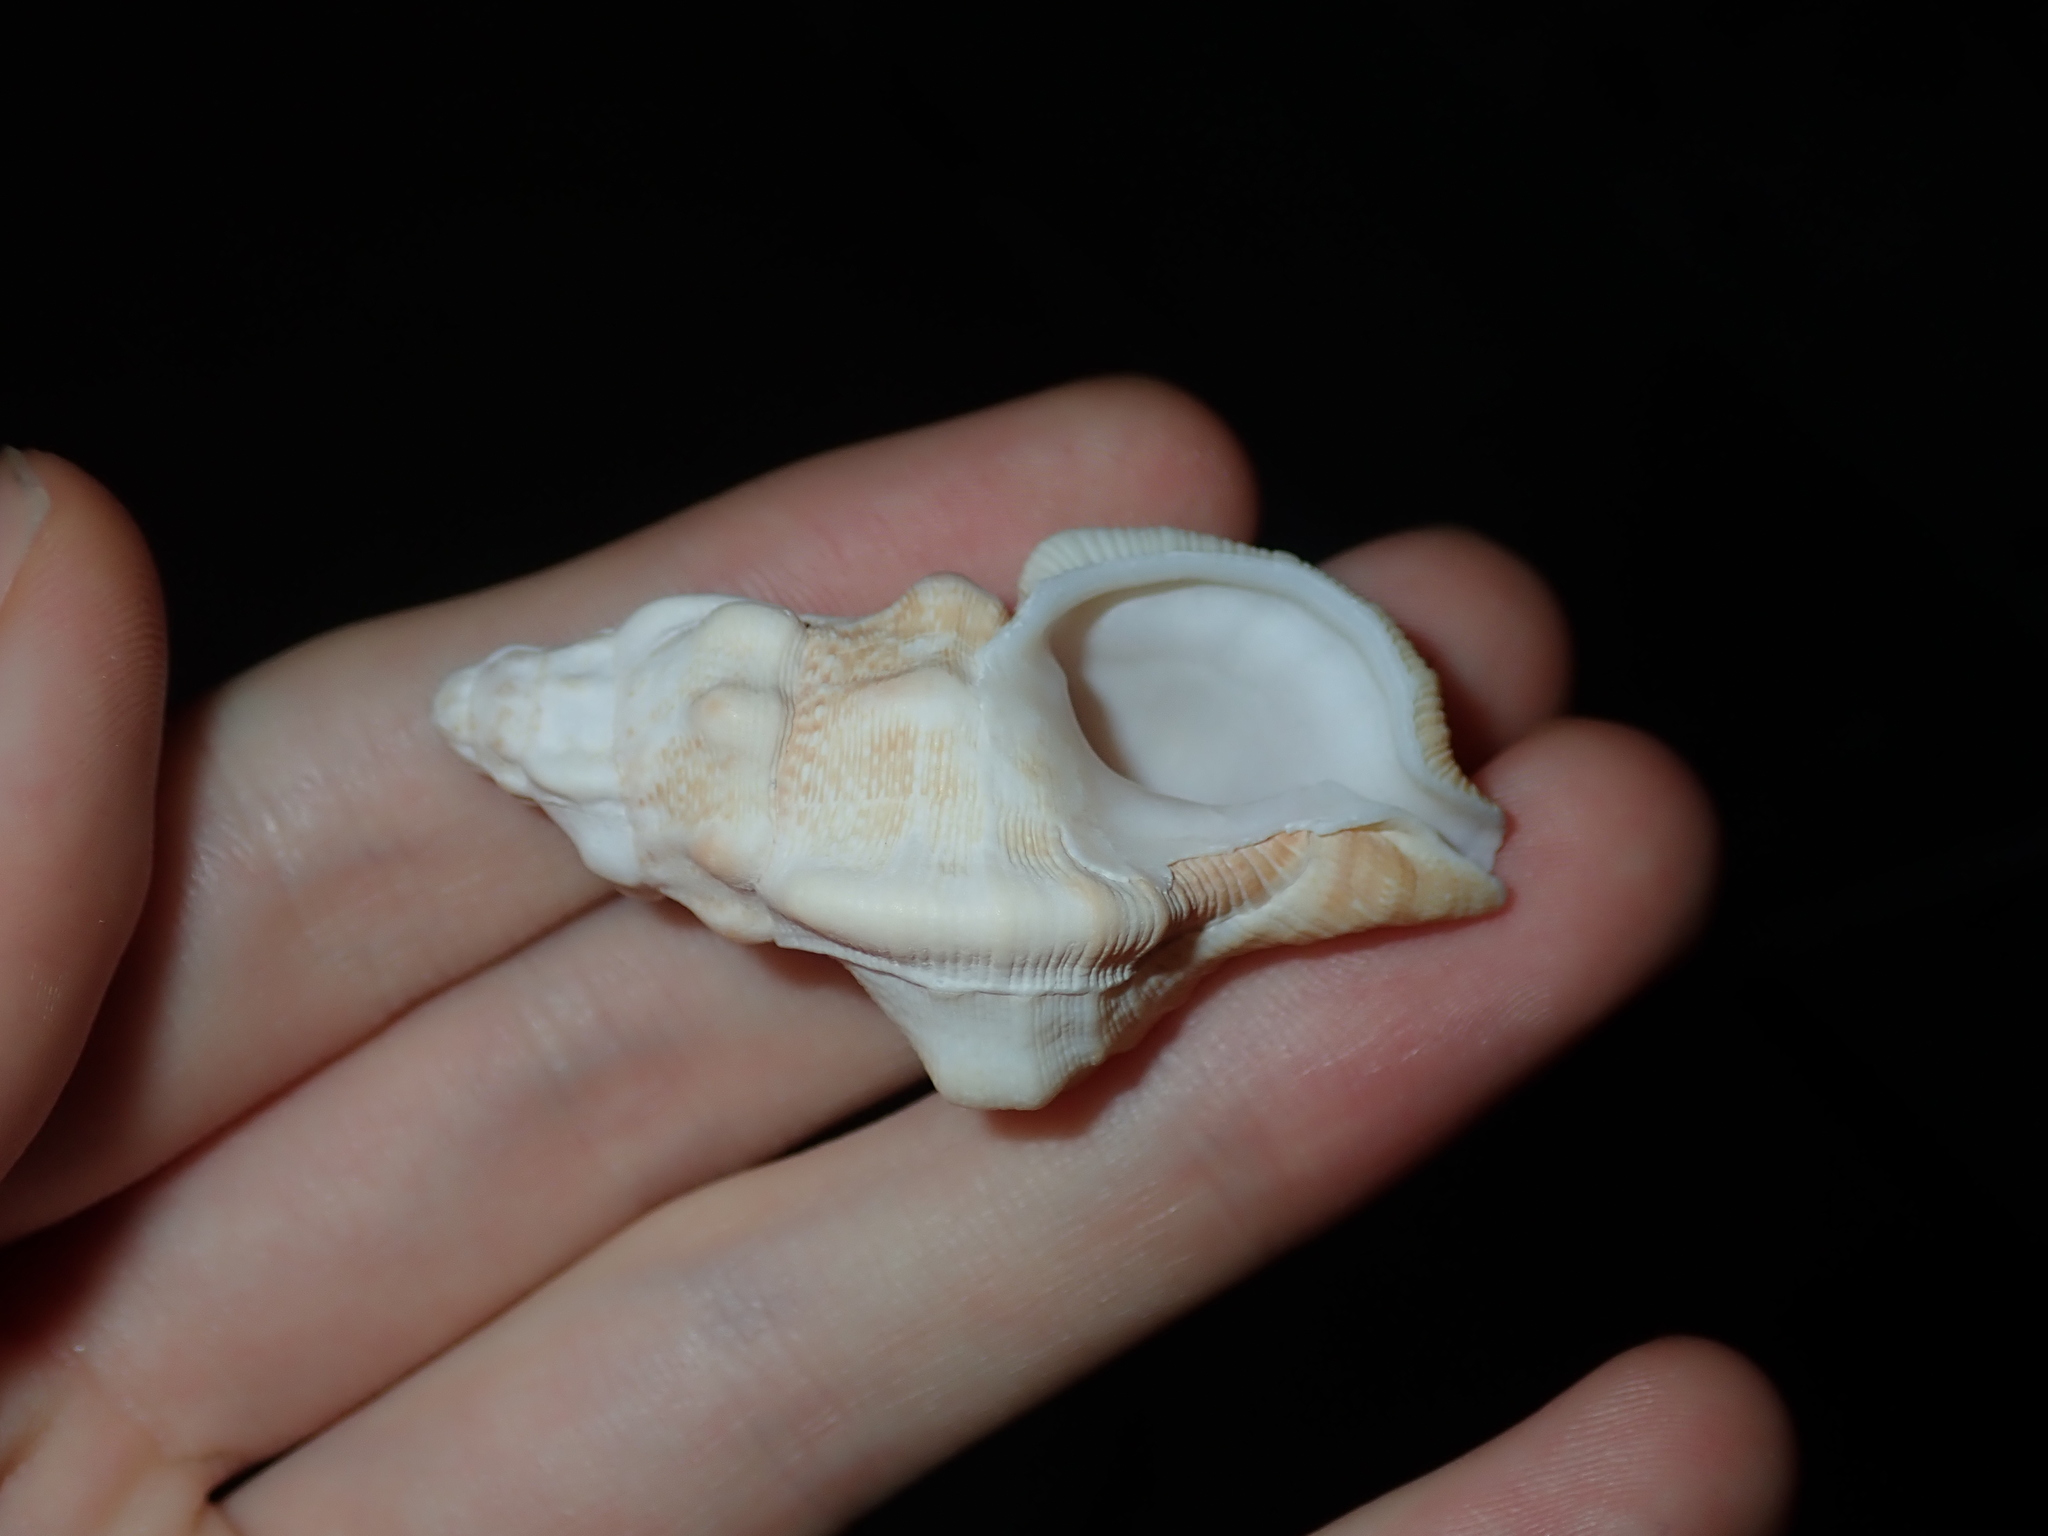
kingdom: Animalia
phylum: Mollusca
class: Gastropoda
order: Littorinimorpha
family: Cymatiidae
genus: Austrosassia
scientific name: Austrosassia parkinsonia
